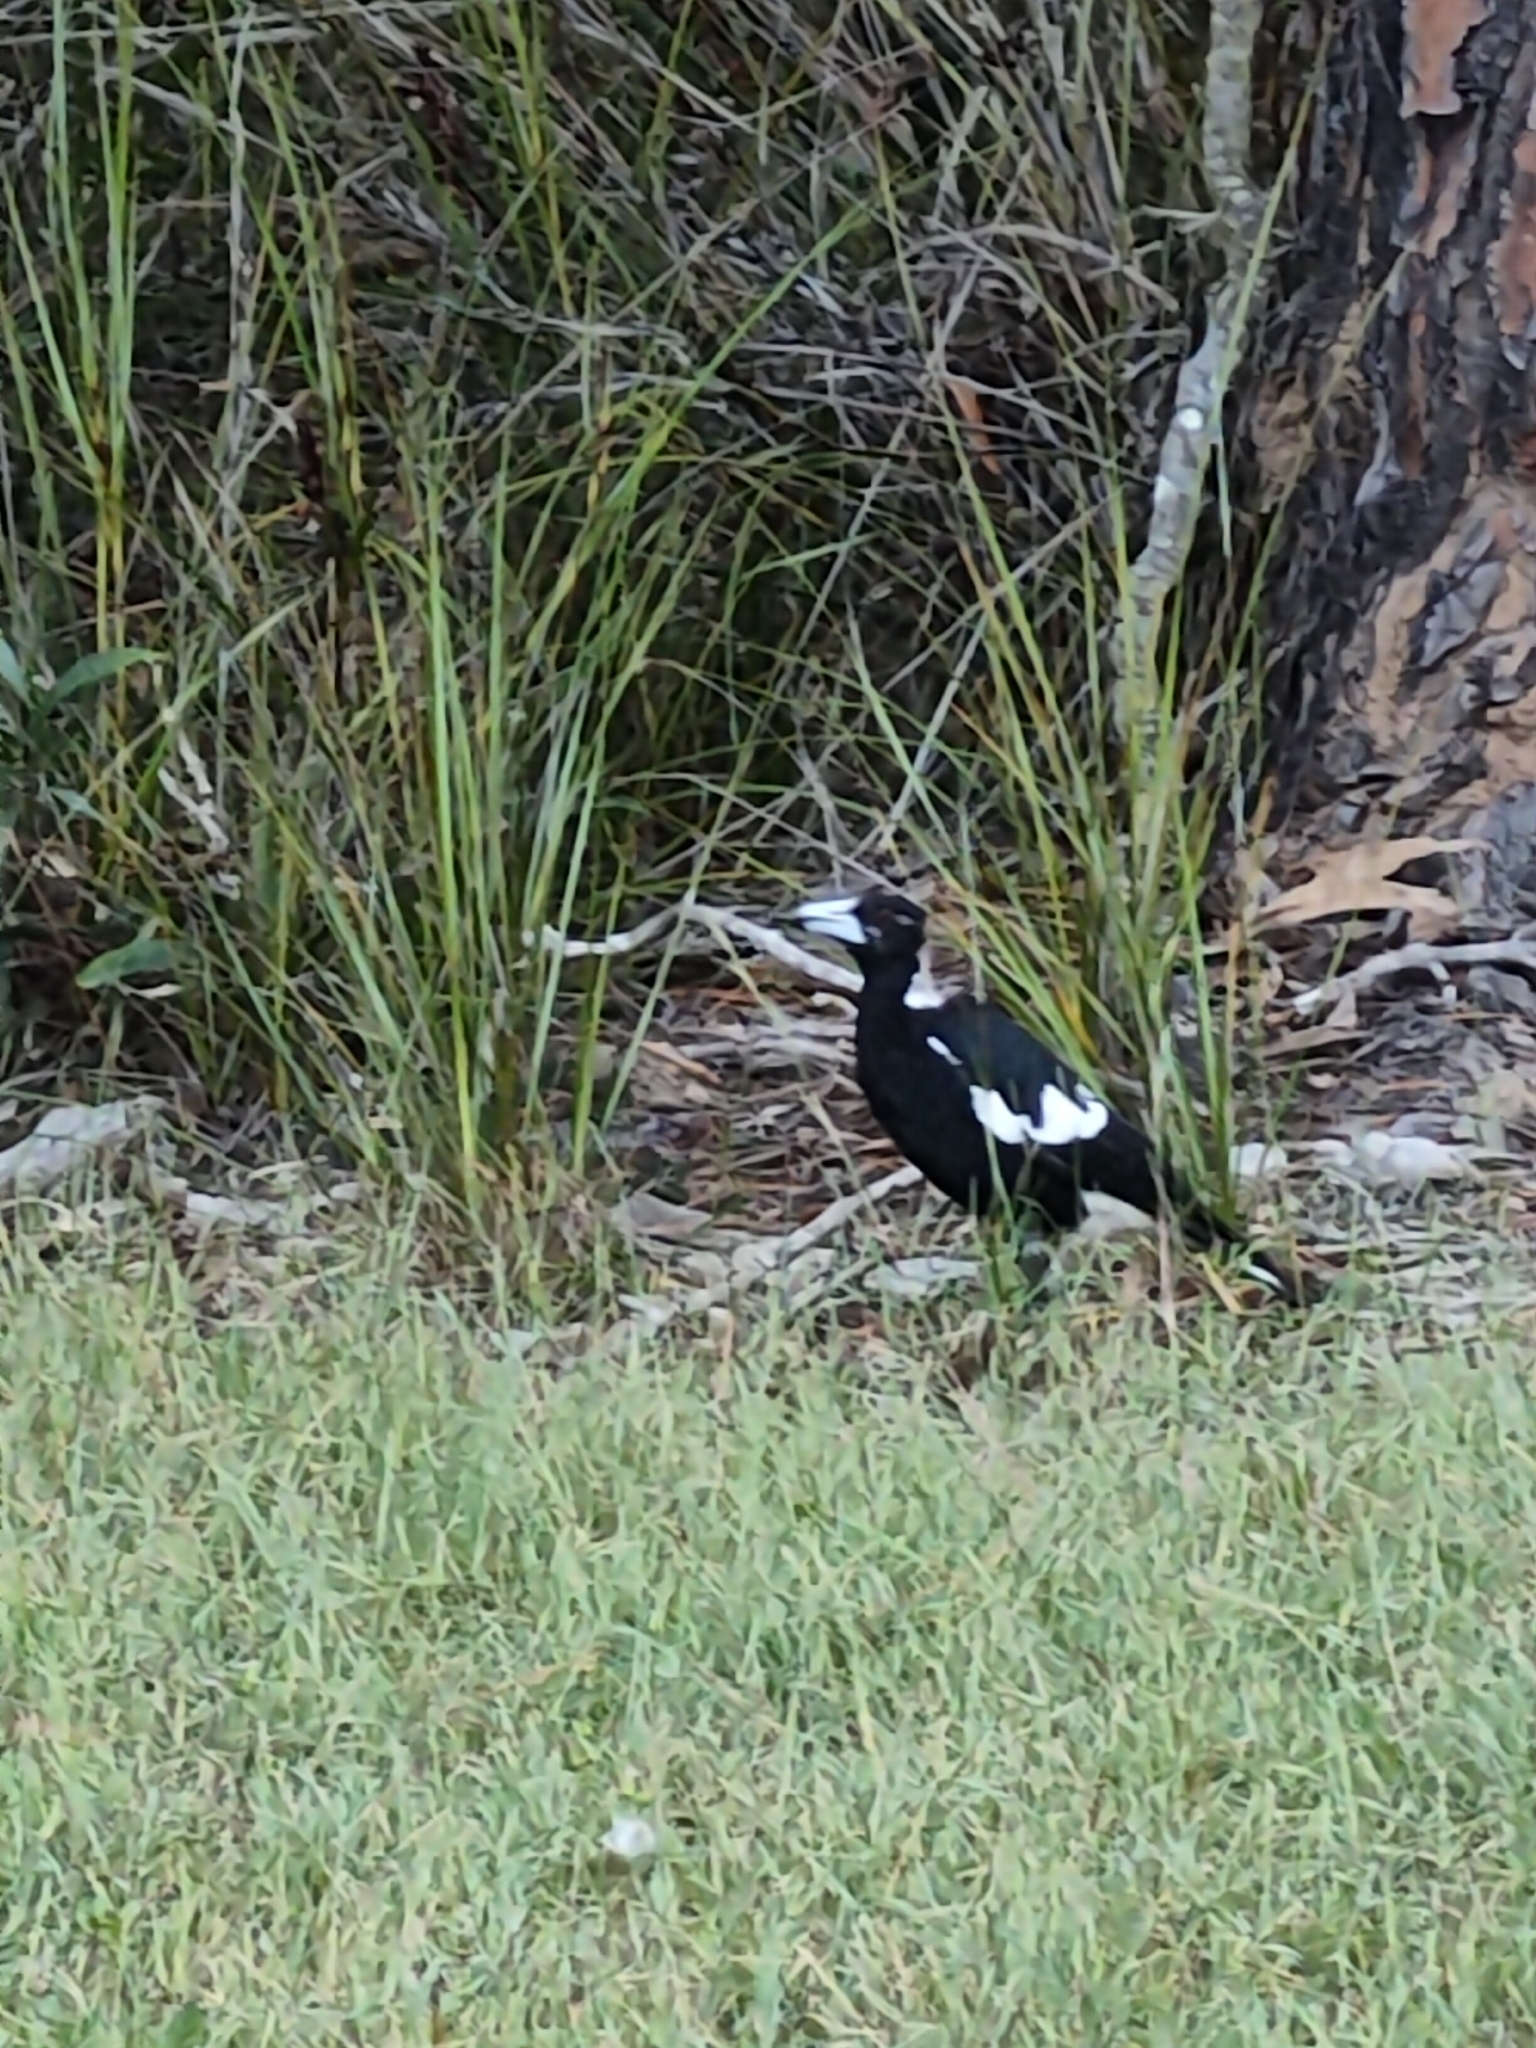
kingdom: Animalia
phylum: Chordata
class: Aves
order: Passeriformes
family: Cracticidae
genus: Gymnorhina
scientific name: Gymnorhina tibicen
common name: Australian magpie
